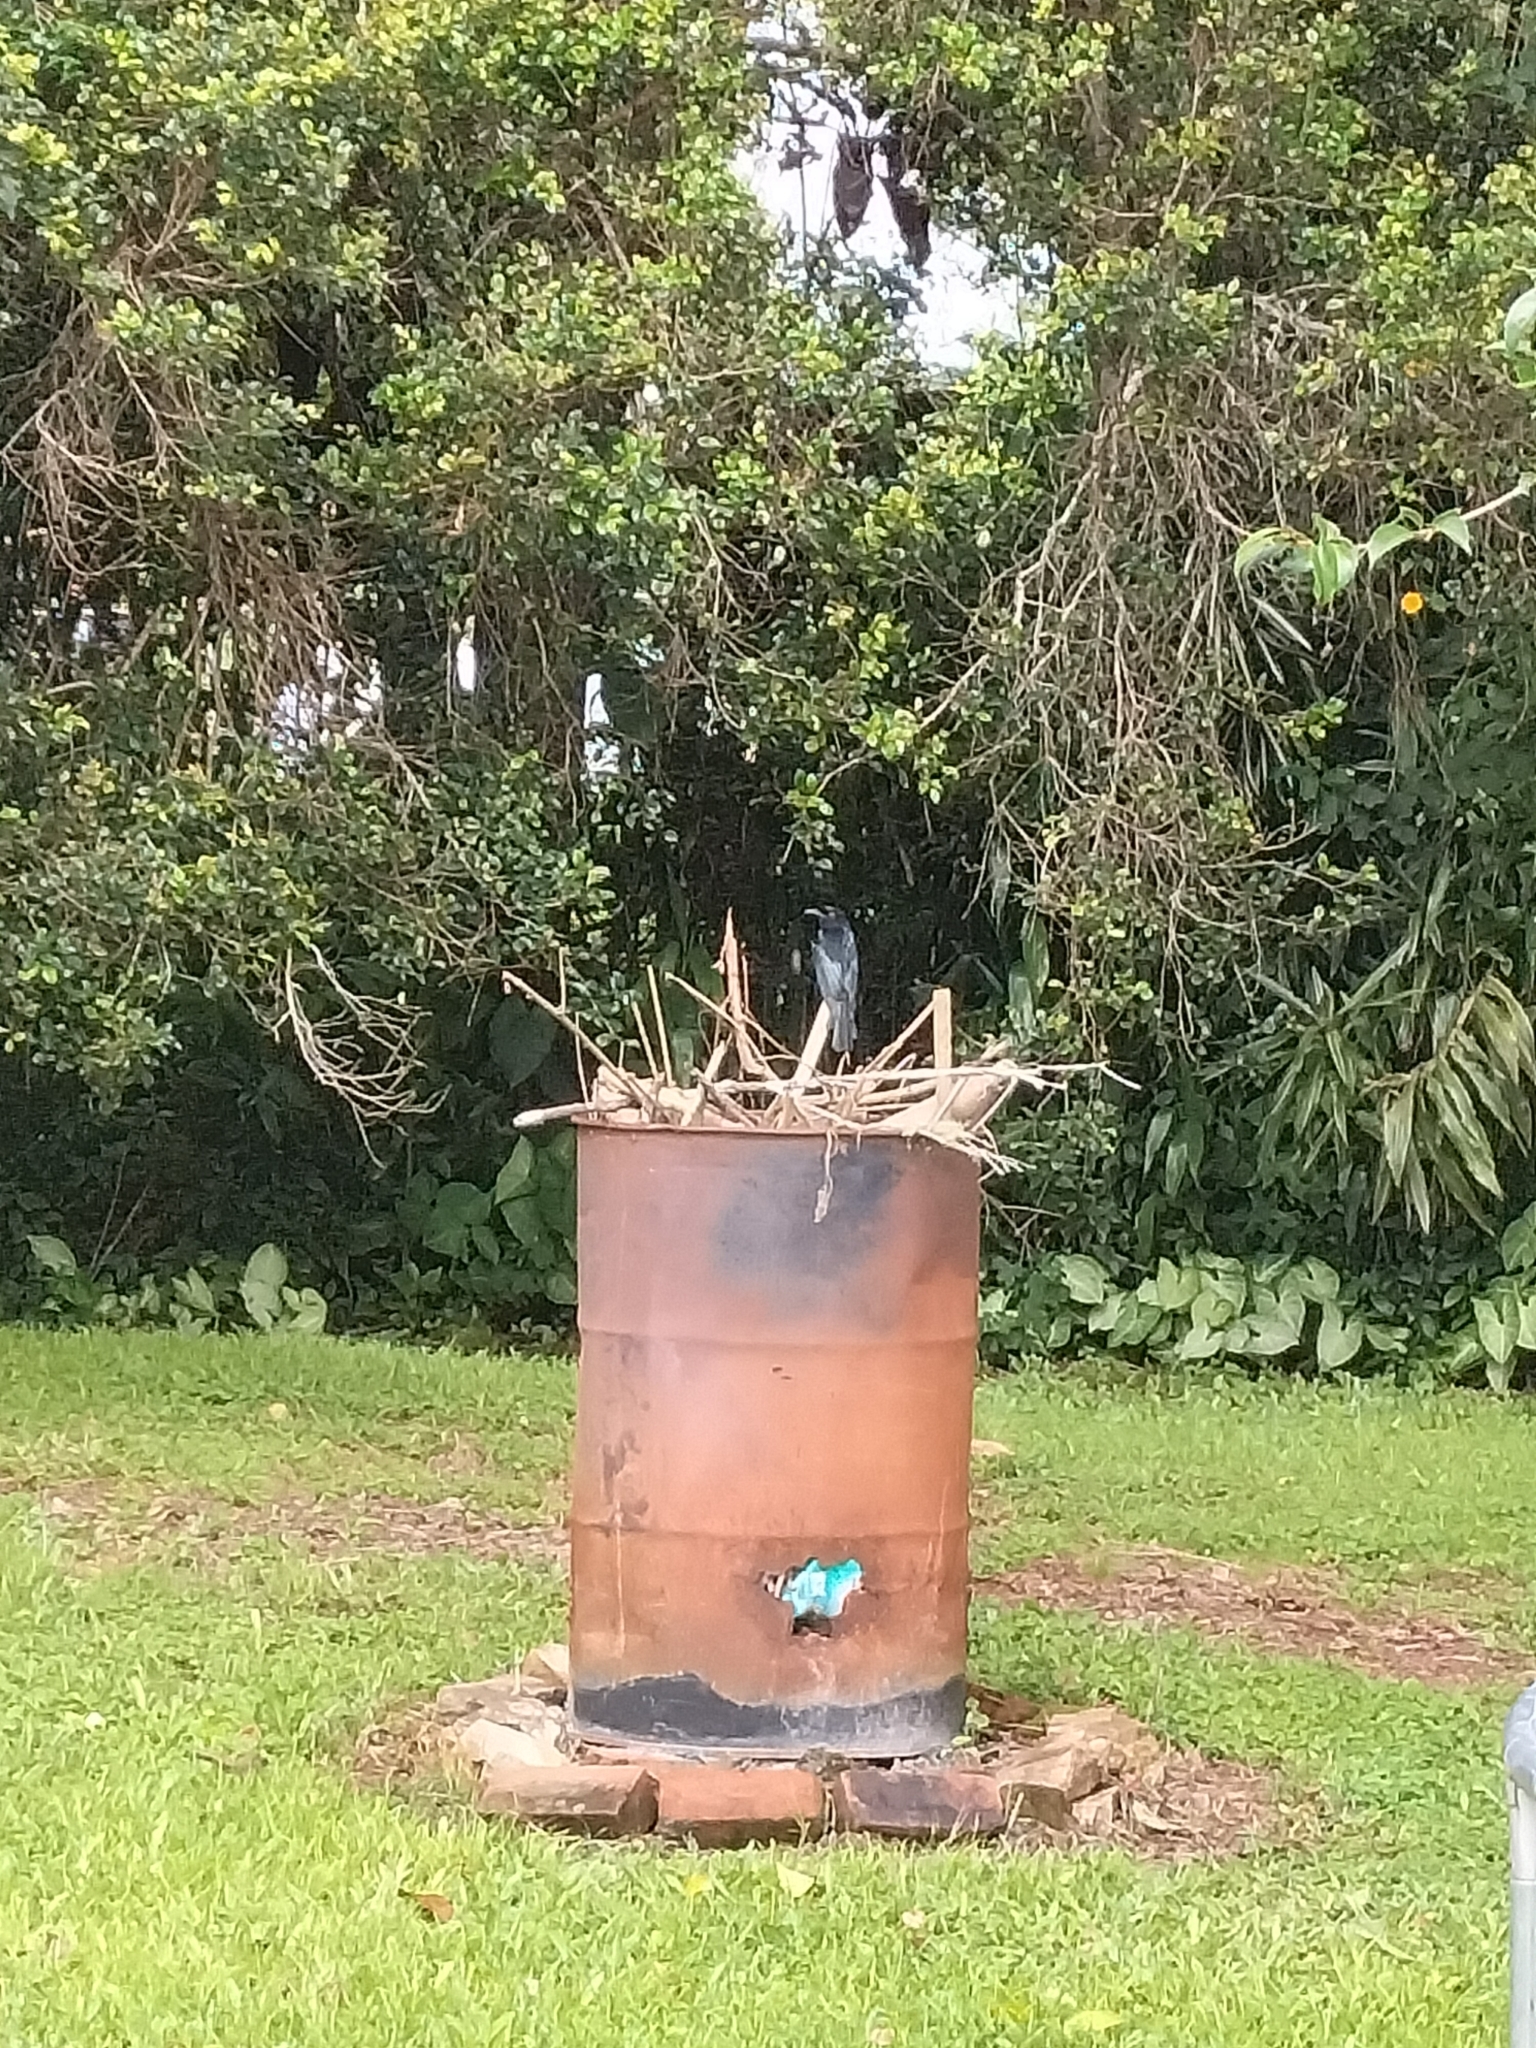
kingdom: Animalia
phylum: Chordata
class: Aves
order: Passeriformes
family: Dicruridae
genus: Dicrurus
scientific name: Dicrurus bracteatus
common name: Spangled drongo
